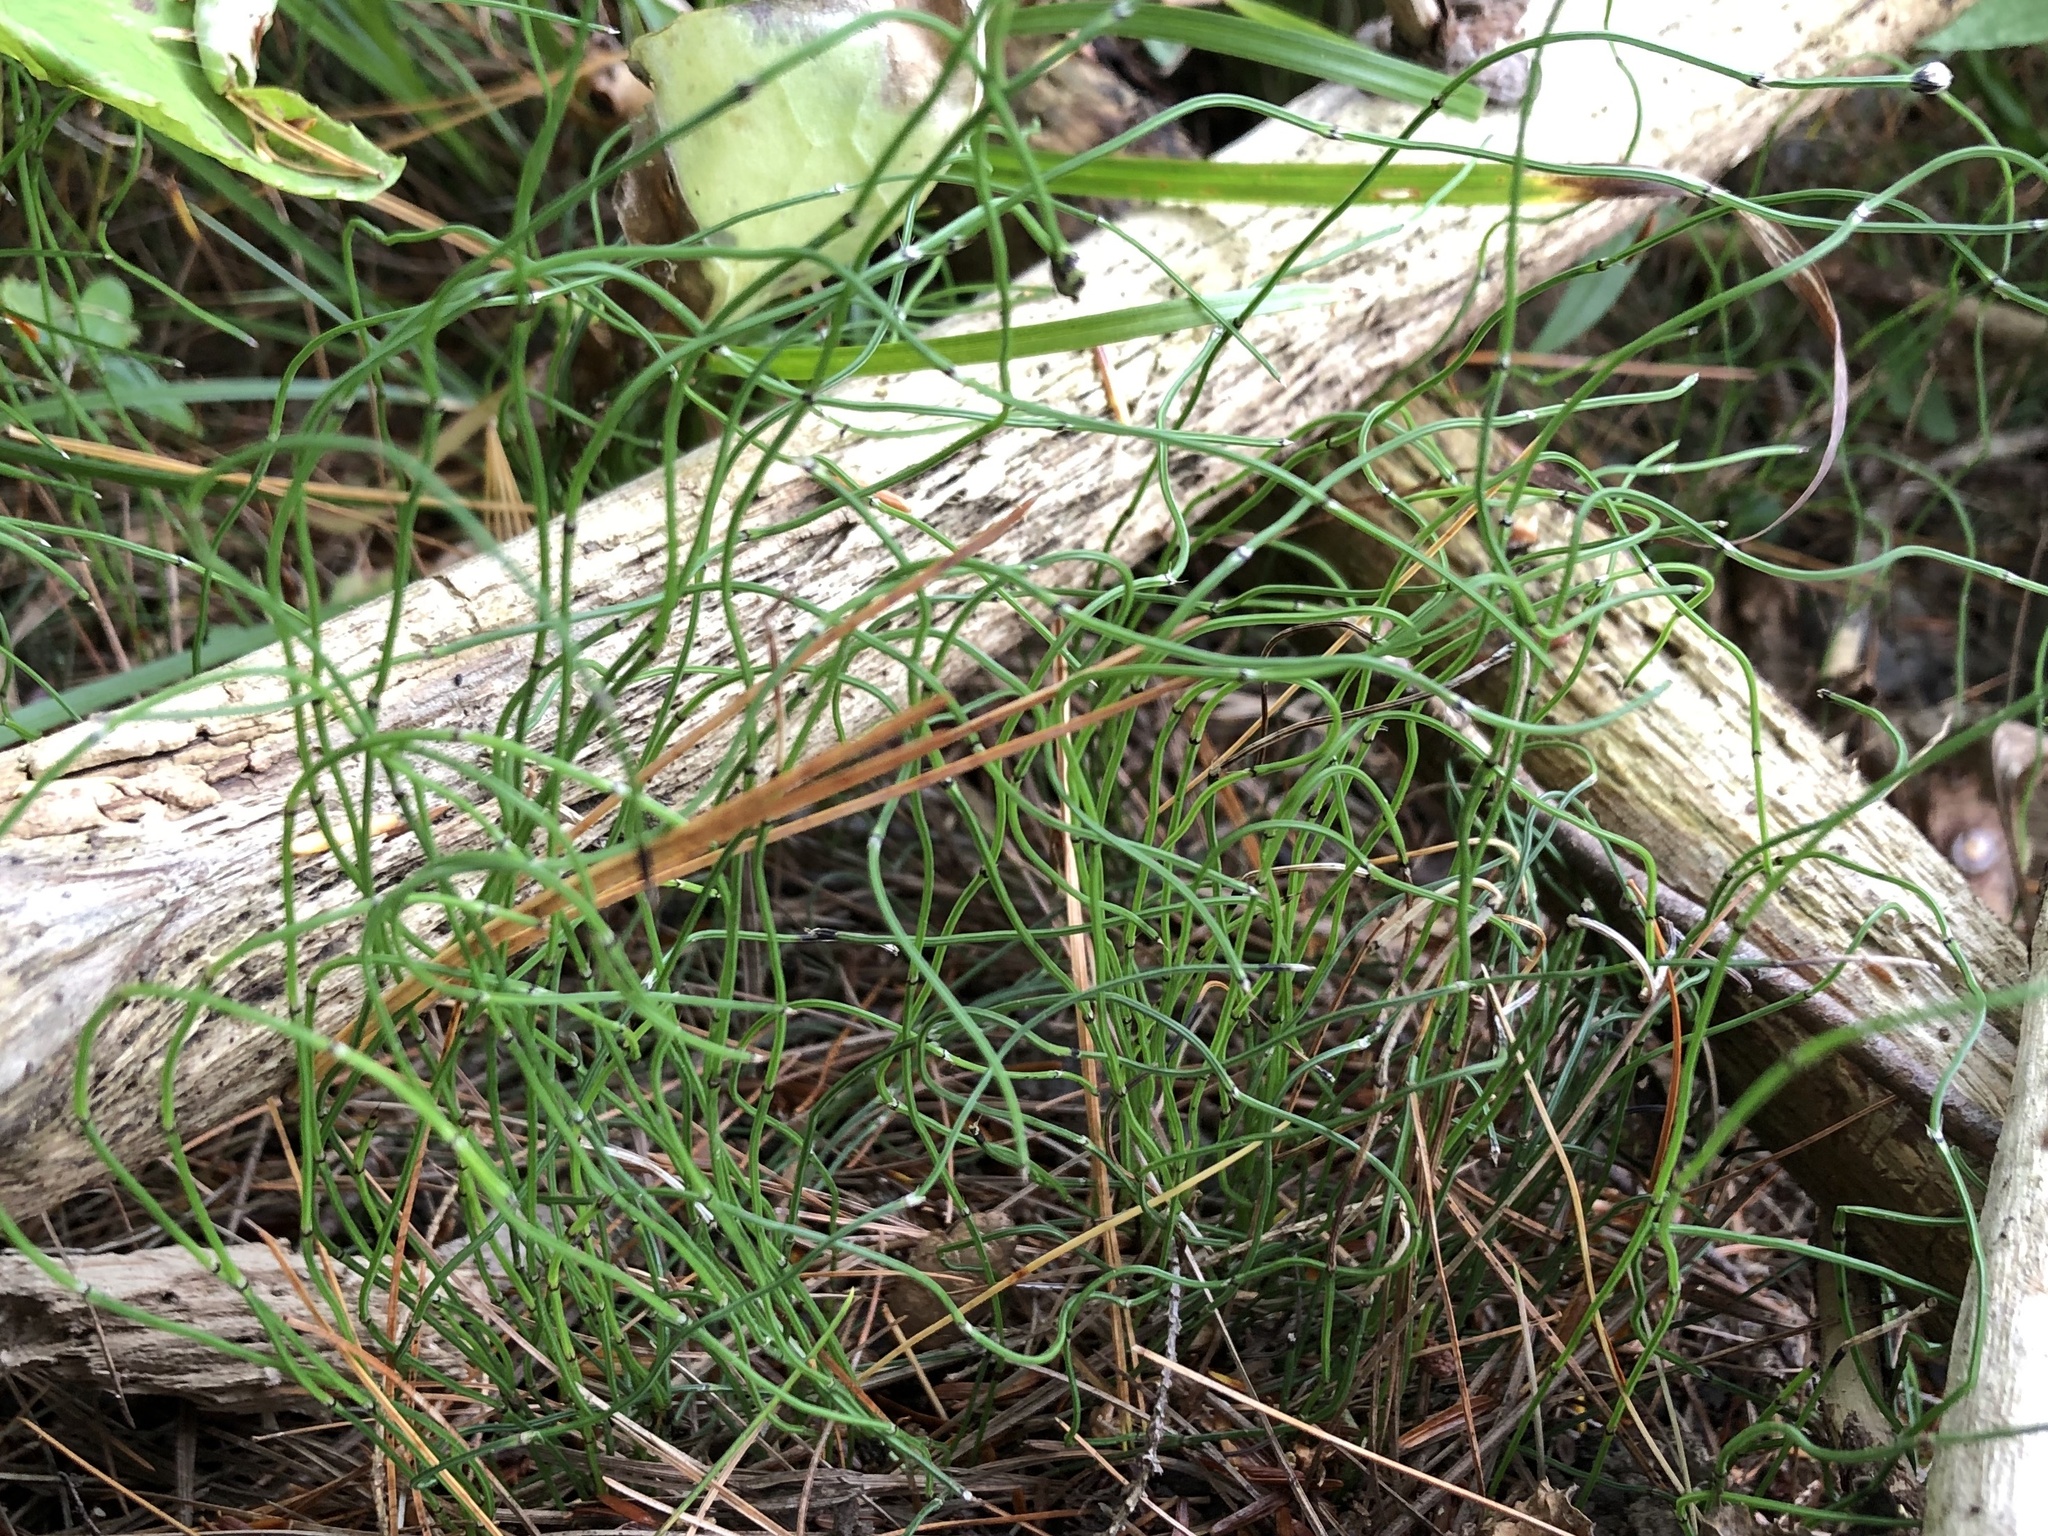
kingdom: Plantae
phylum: Tracheophyta
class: Polypodiopsida
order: Equisetales
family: Equisetaceae
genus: Equisetum
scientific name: Equisetum scirpoides
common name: Delicate horsetail
